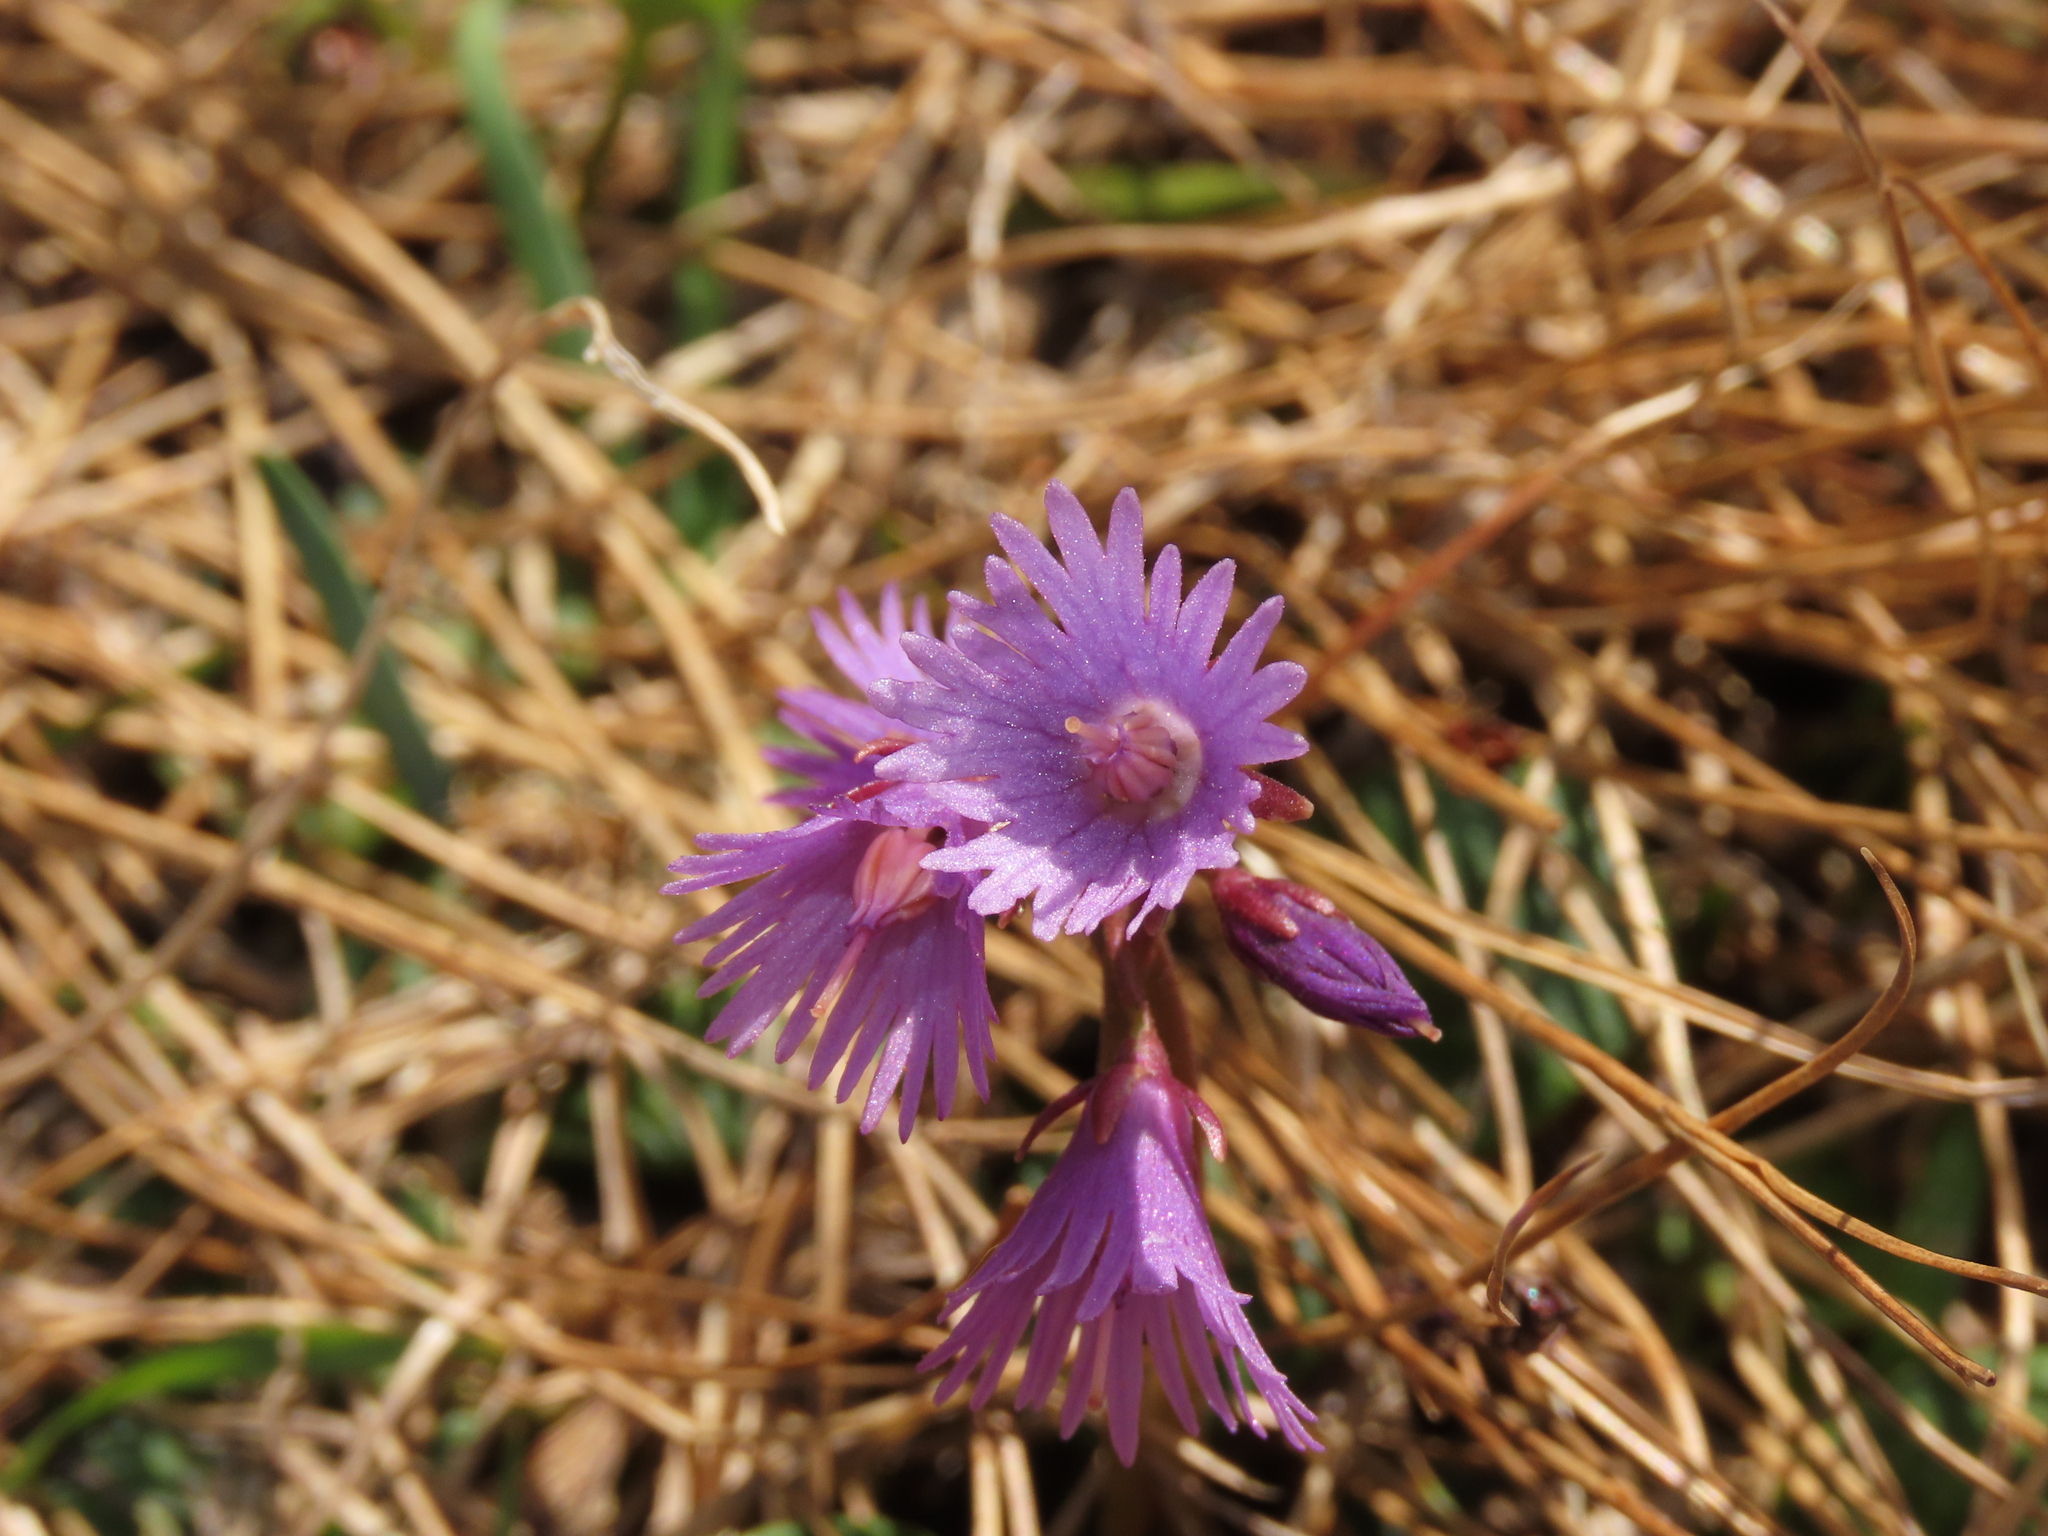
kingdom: Plantae
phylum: Tracheophyta
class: Magnoliopsida
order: Ericales
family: Primulaceae
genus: Soldanella
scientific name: Soldanella alpina
